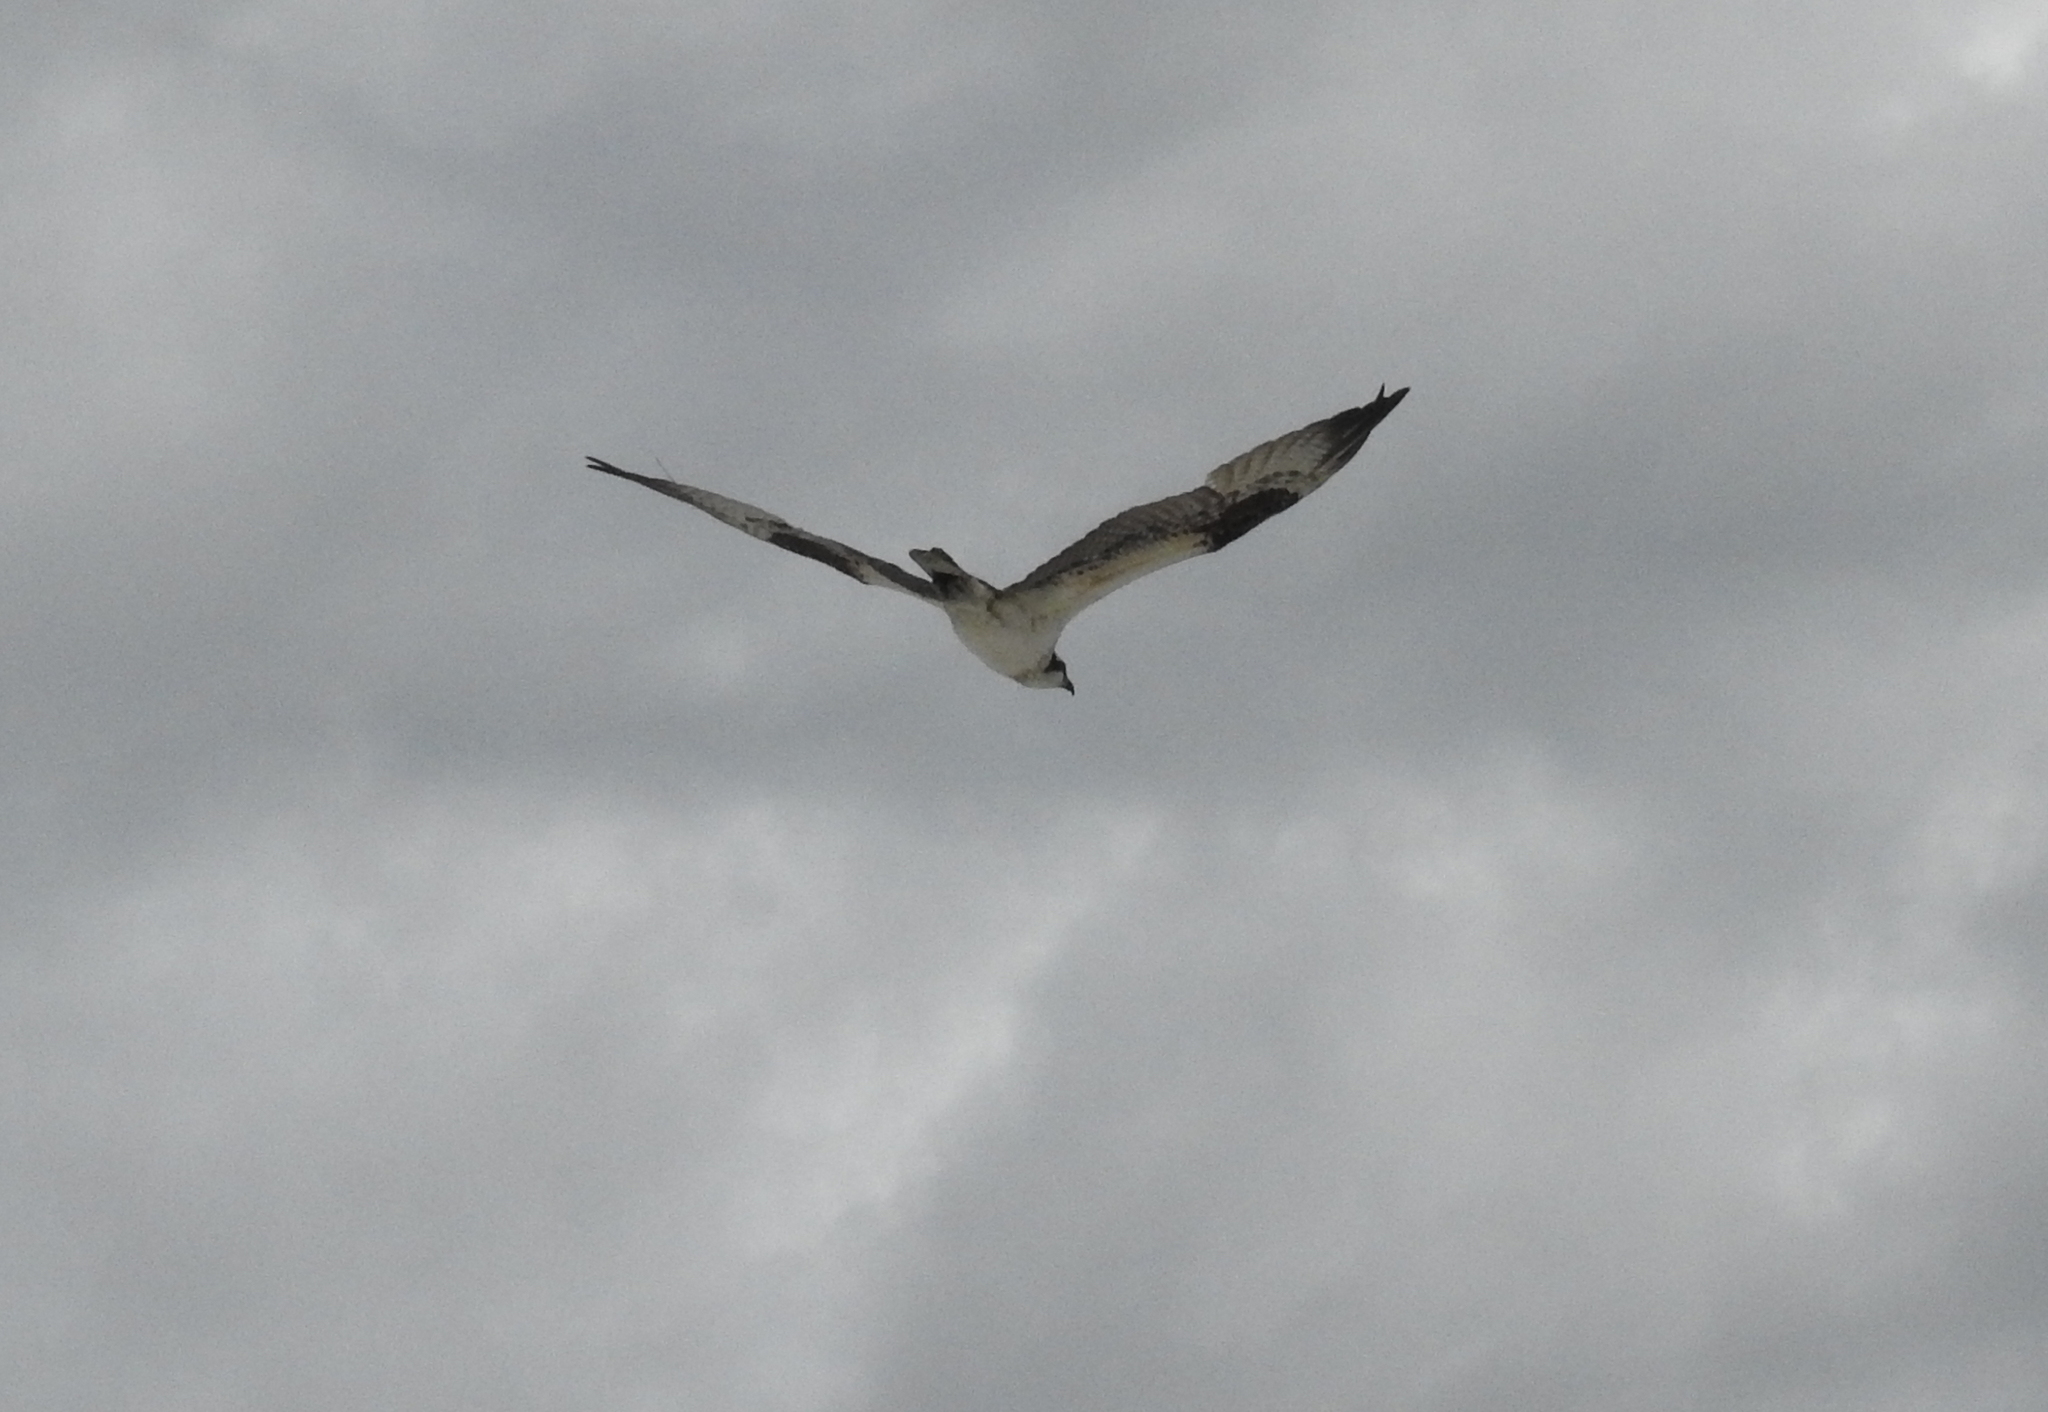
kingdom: Animalia
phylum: Chordata
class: Aves
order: Accipitriformes
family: Pandionidae
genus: Pandion
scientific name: Pandion haliaetus
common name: Osprey
